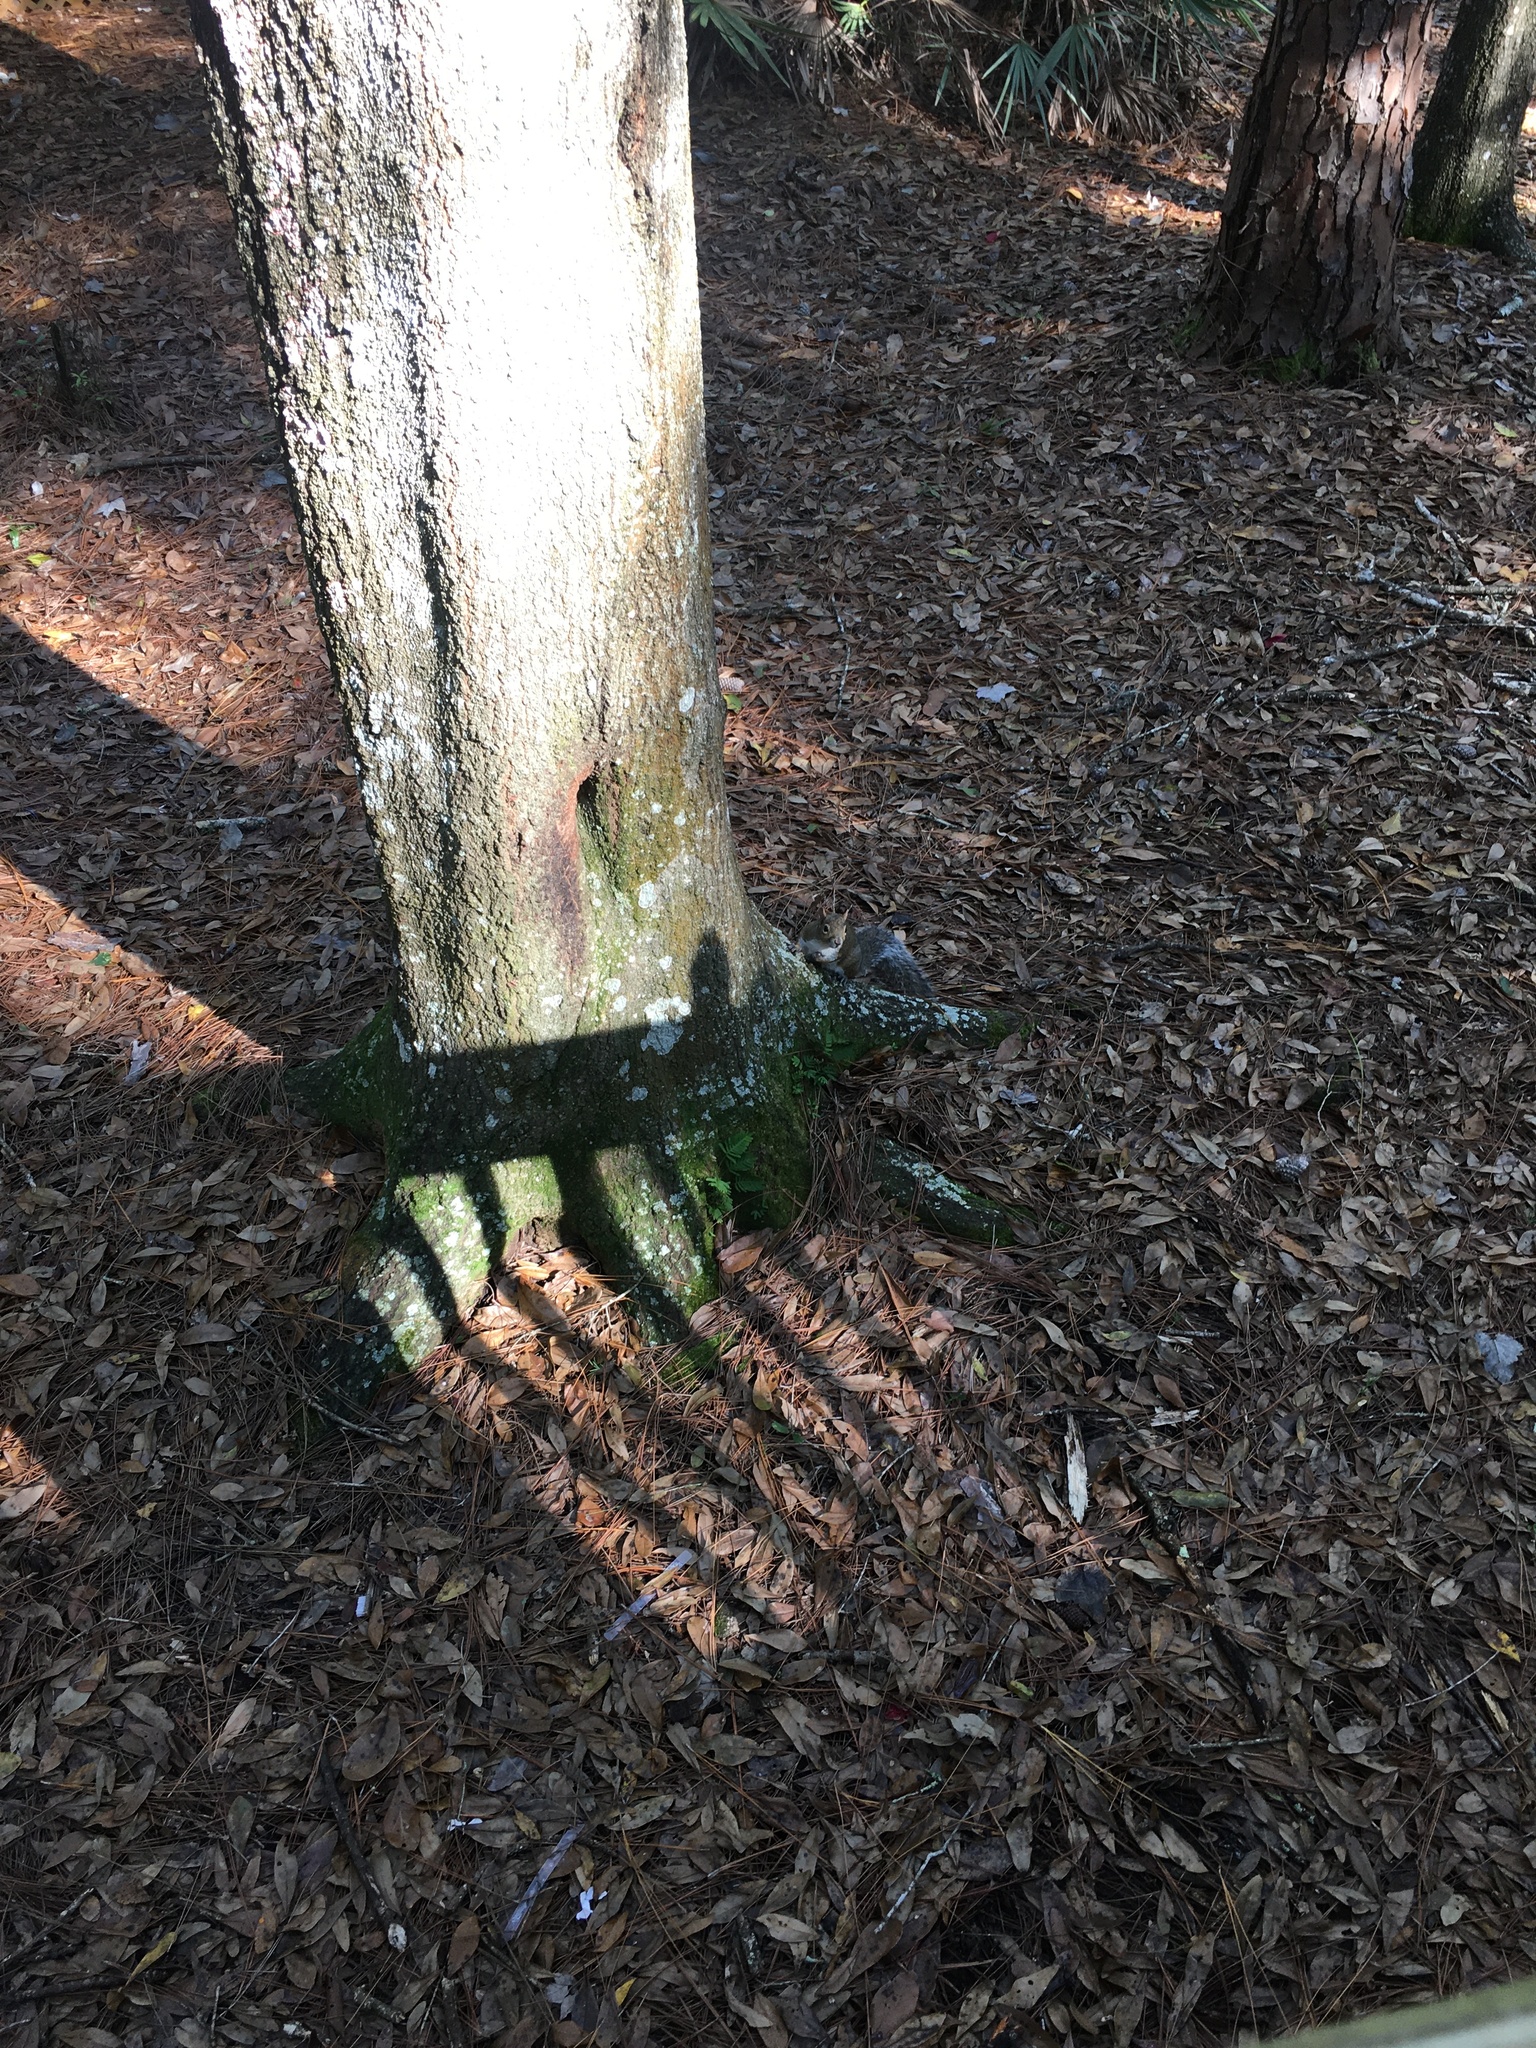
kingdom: Animalia
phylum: Chordata
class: Mammalia
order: Rodentia
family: Sciuridae
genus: Sciurus
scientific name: Sciurus carolinensis
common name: Eastern gray squirrel
